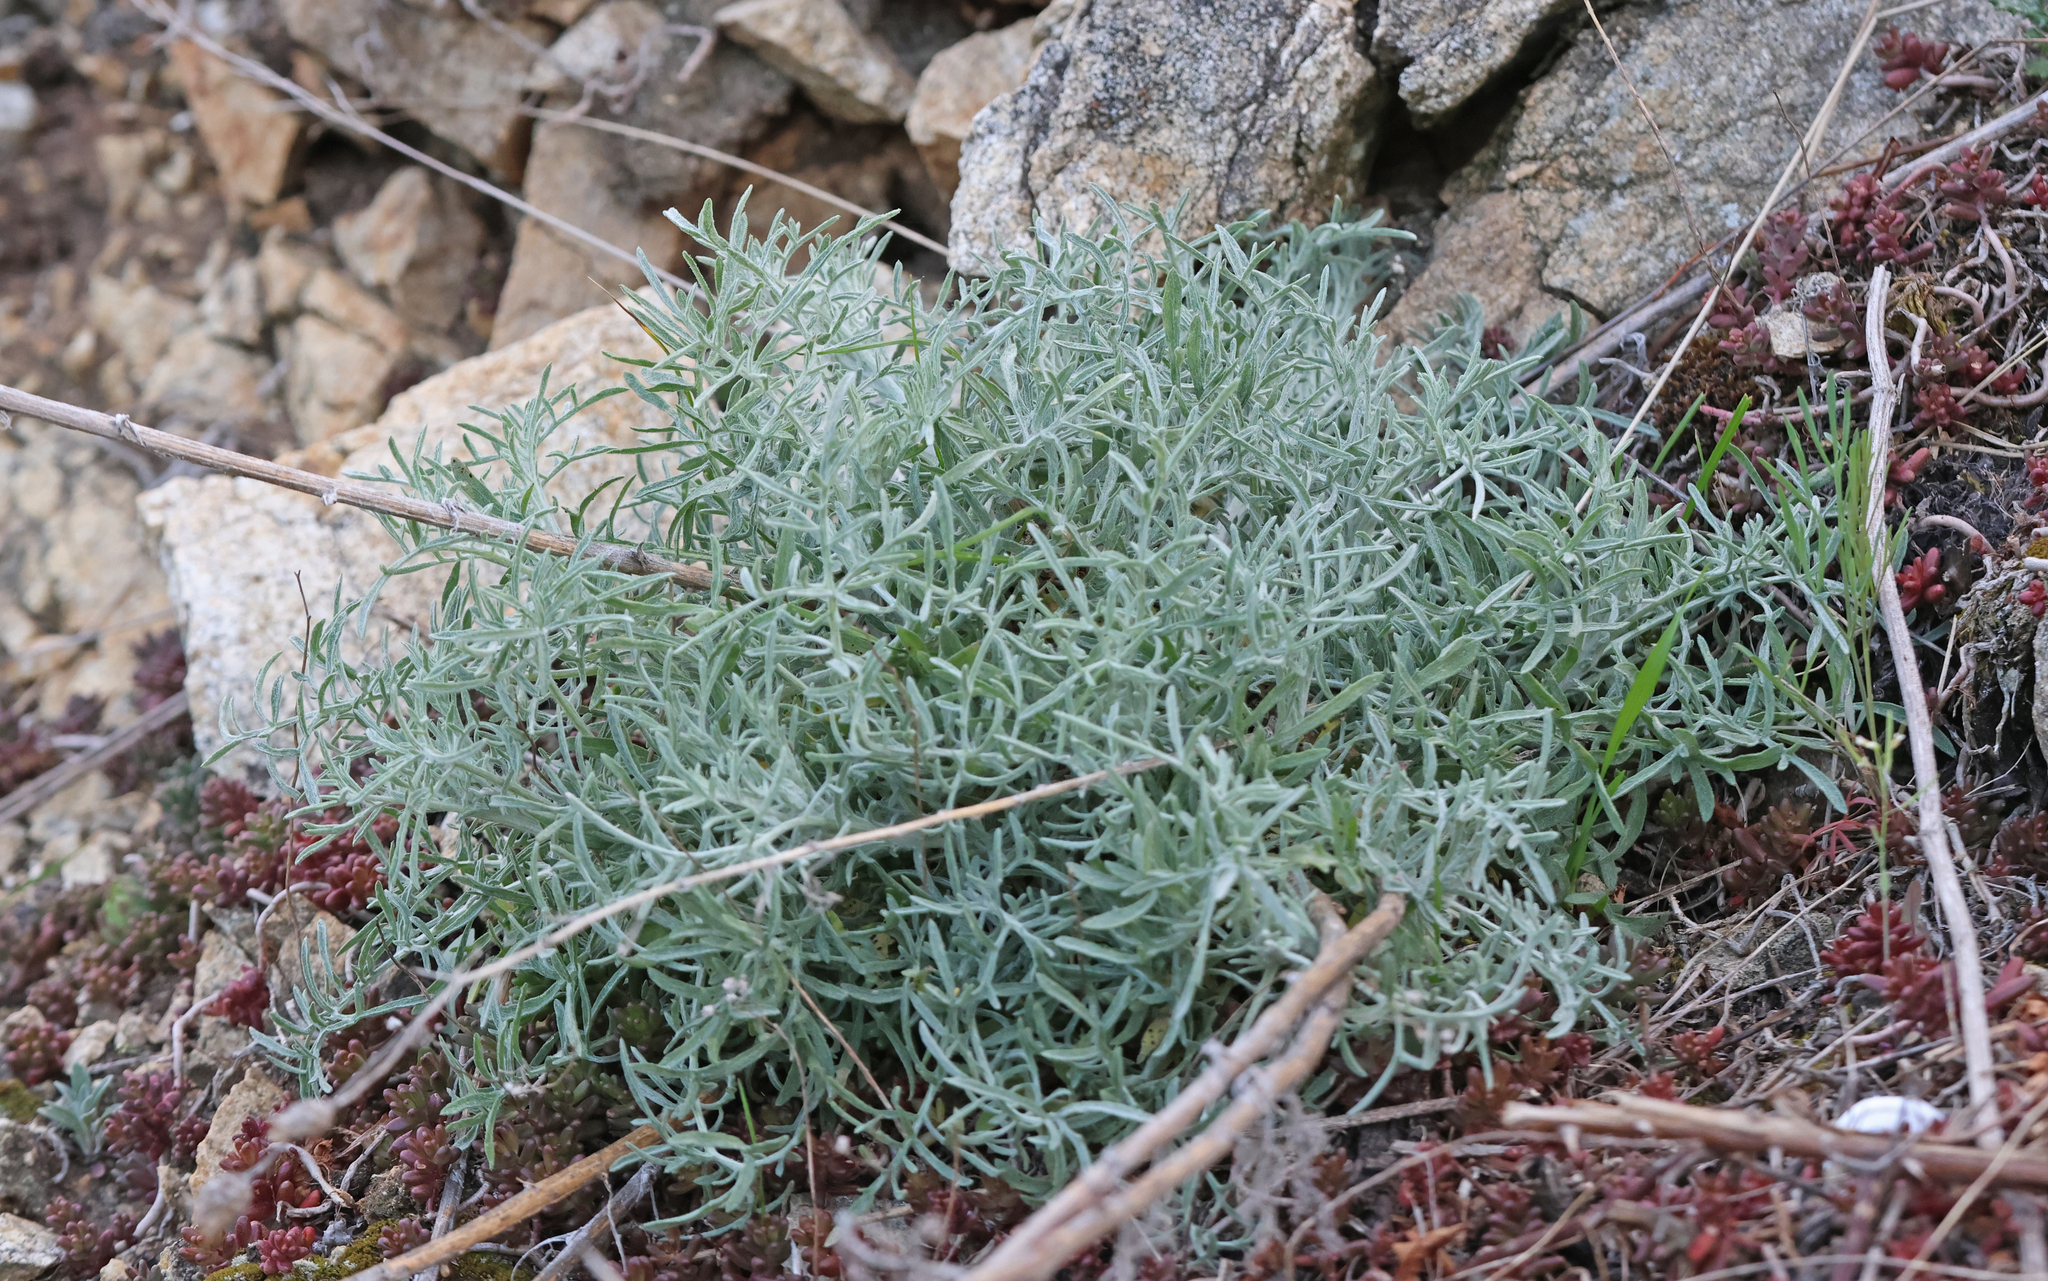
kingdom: Plantae
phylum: Tracheophyta
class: Magnoliopsida
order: Asterales
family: Asteraceae
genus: Centaurea
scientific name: Centaurea stoebe
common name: Spotted knapweed
